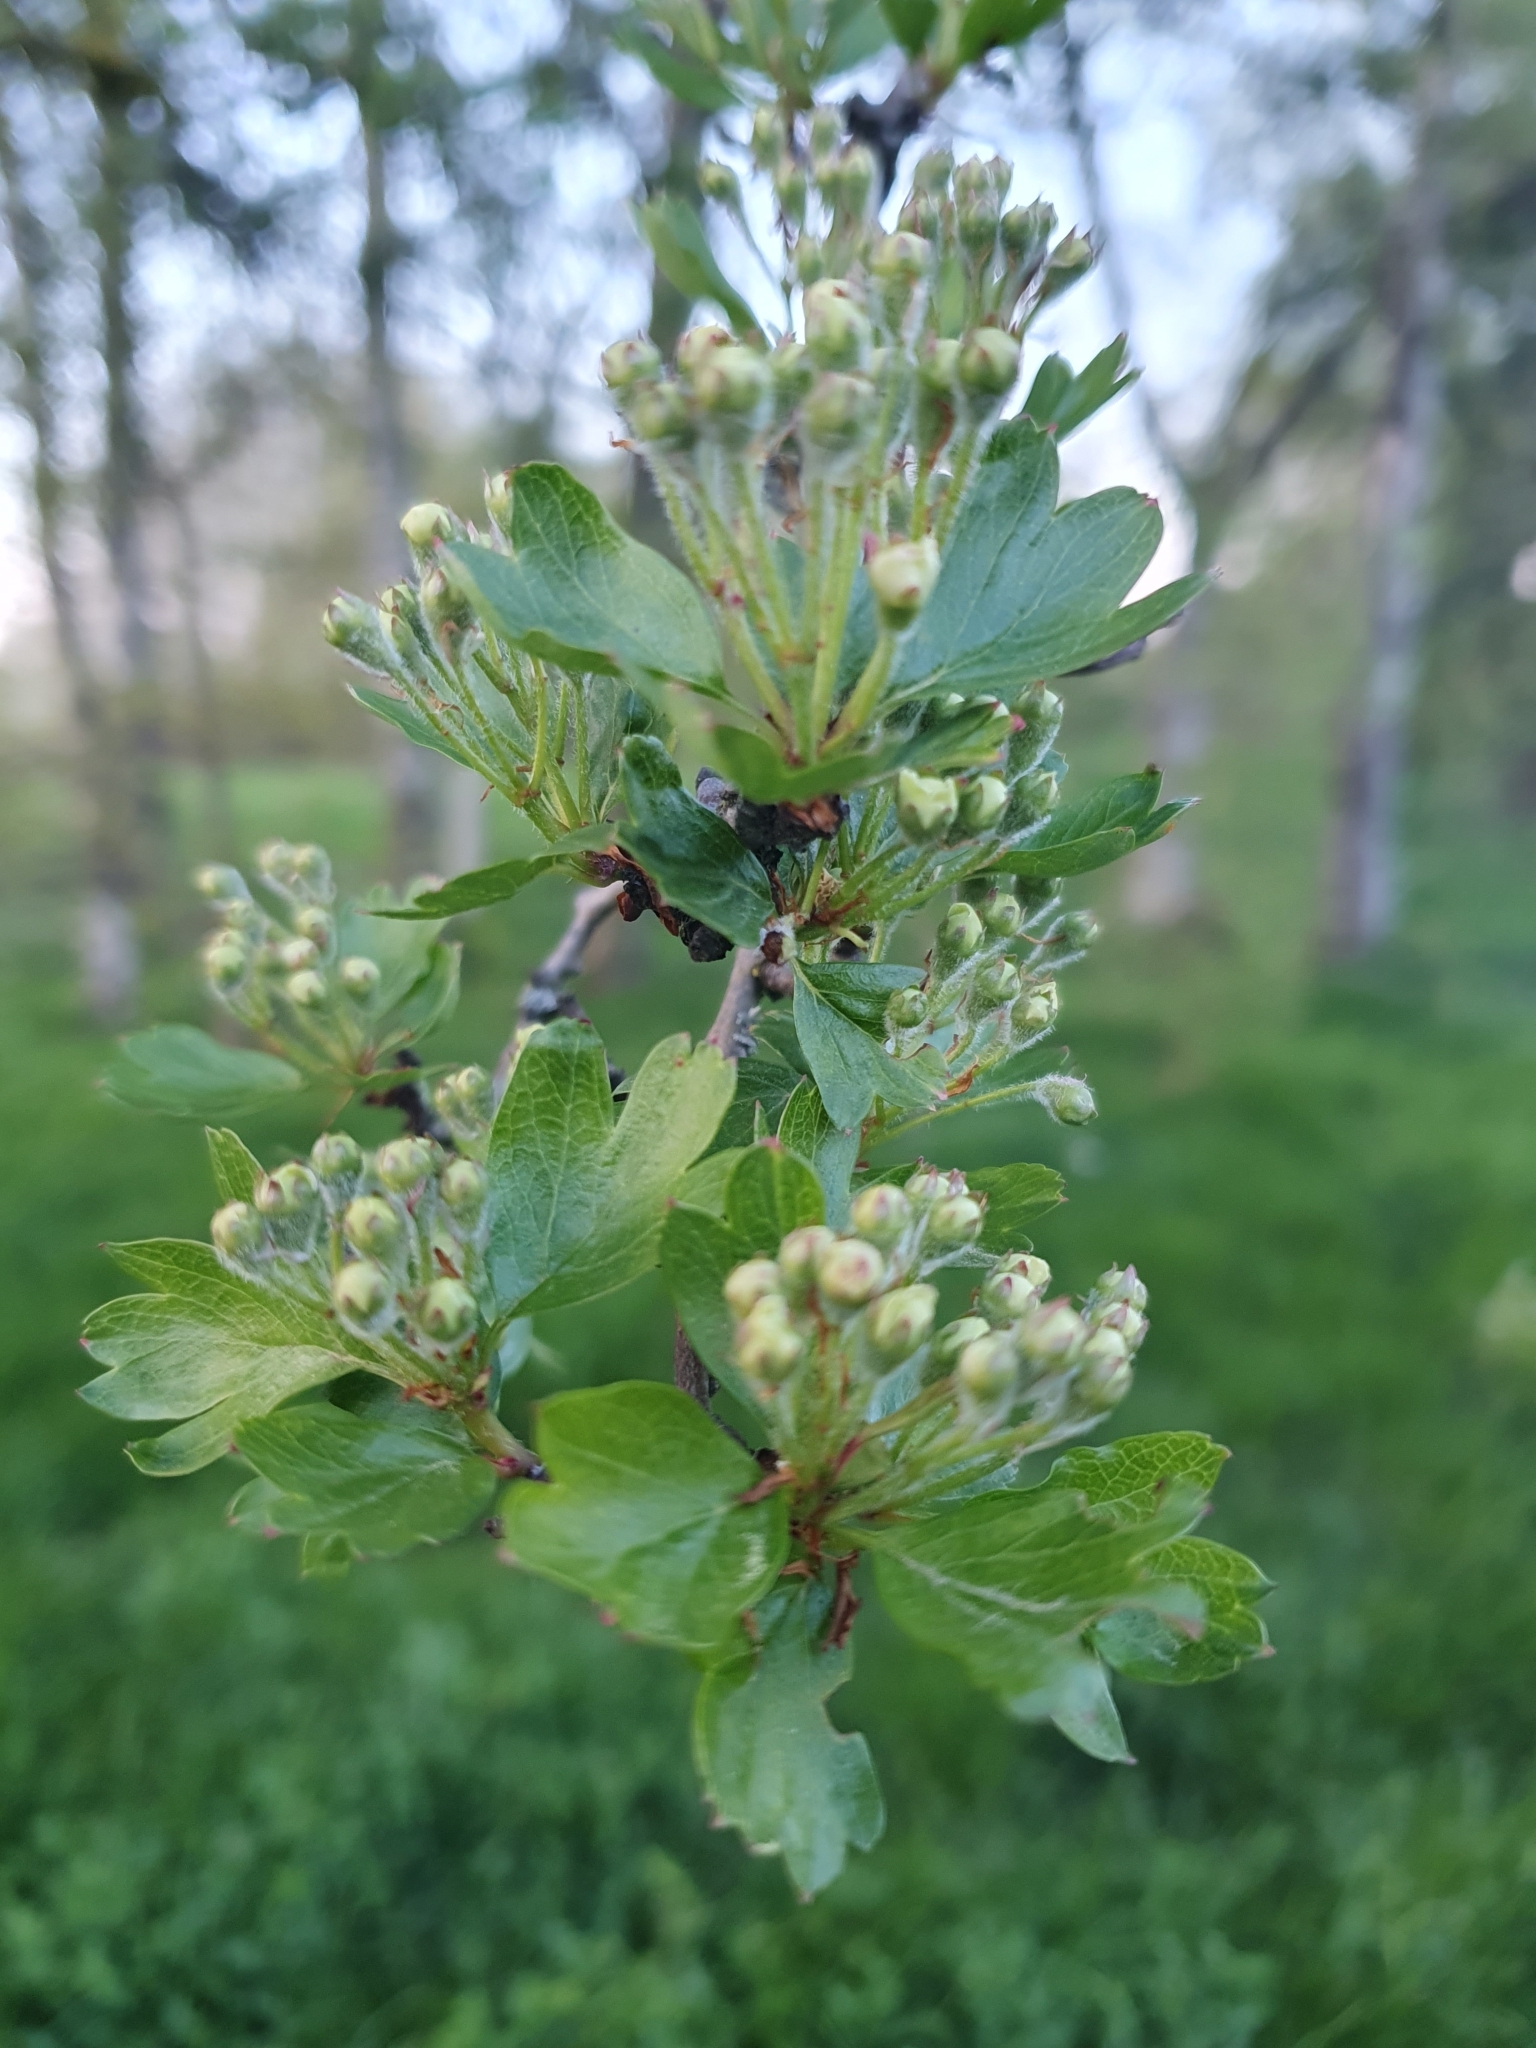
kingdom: Plantae
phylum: Tracheophyta
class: Magnoliopsida
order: Rosales
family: Rosaceae
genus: Crataegus
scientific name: Crataegus monogyna
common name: Hawthorn
